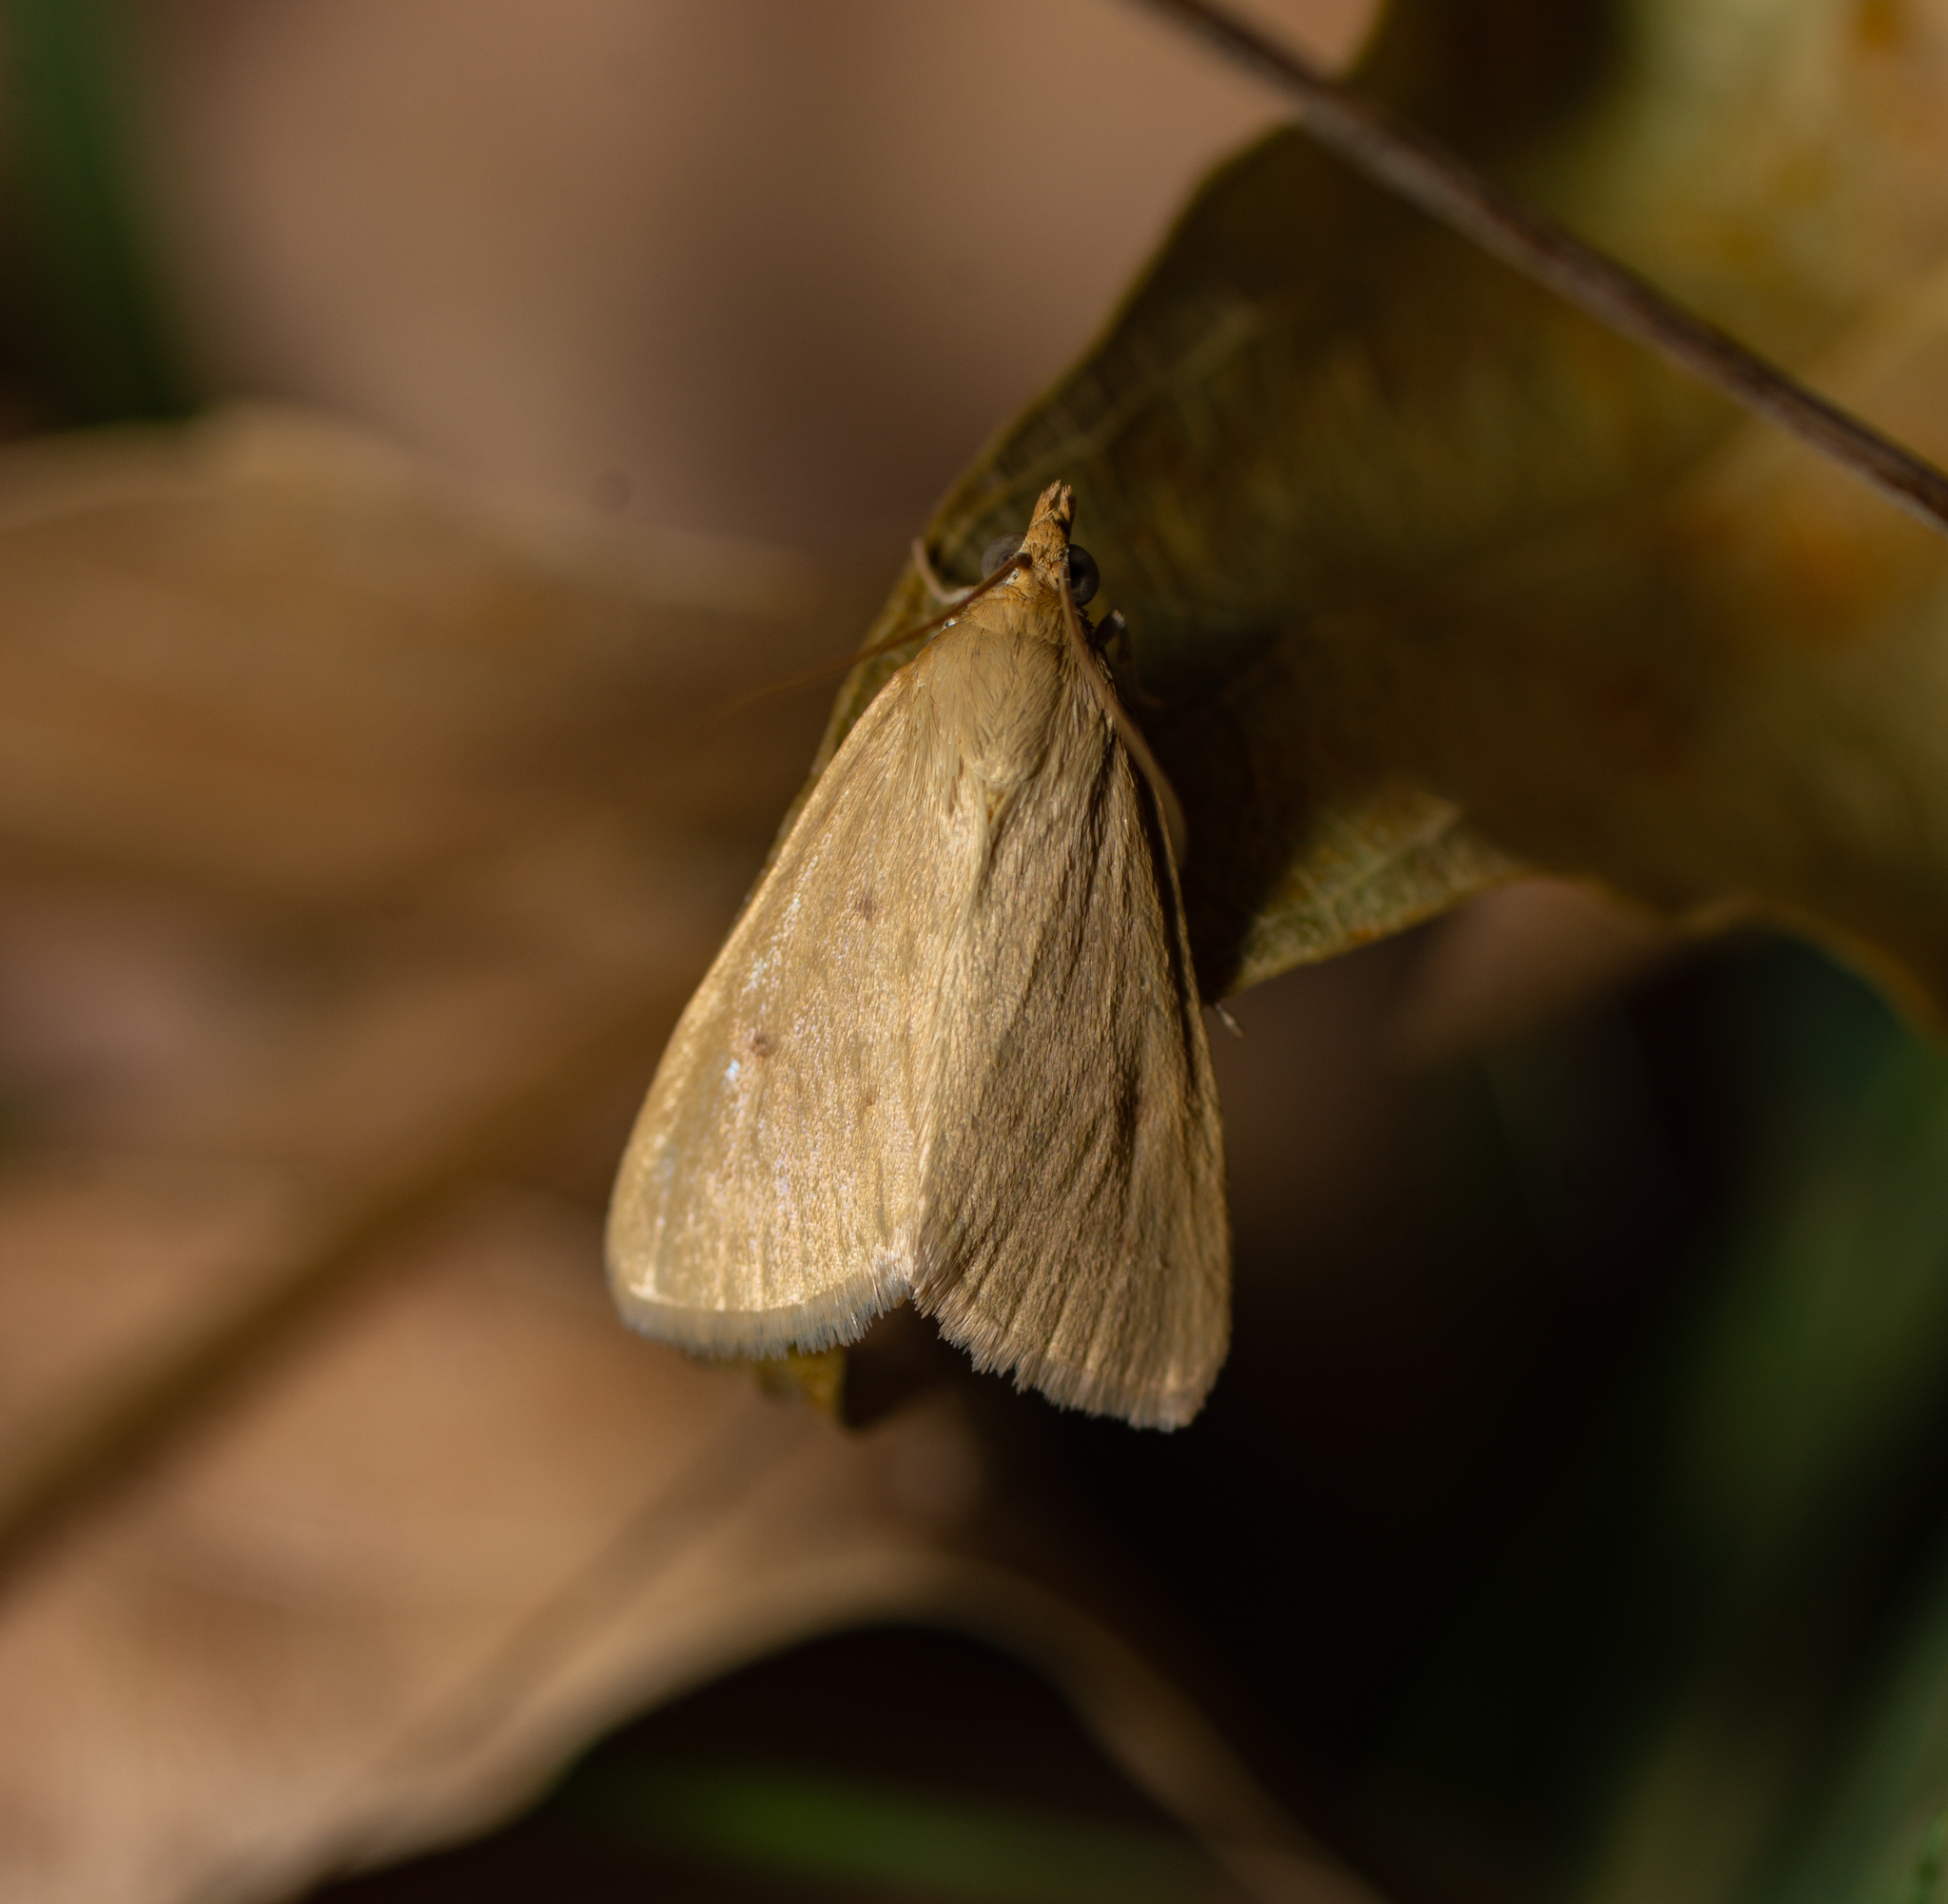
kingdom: Animalia
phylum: Arthropoda
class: Insecta
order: Lepidoptera
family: Crambidae
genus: Achyra
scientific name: Achyra nudalis
